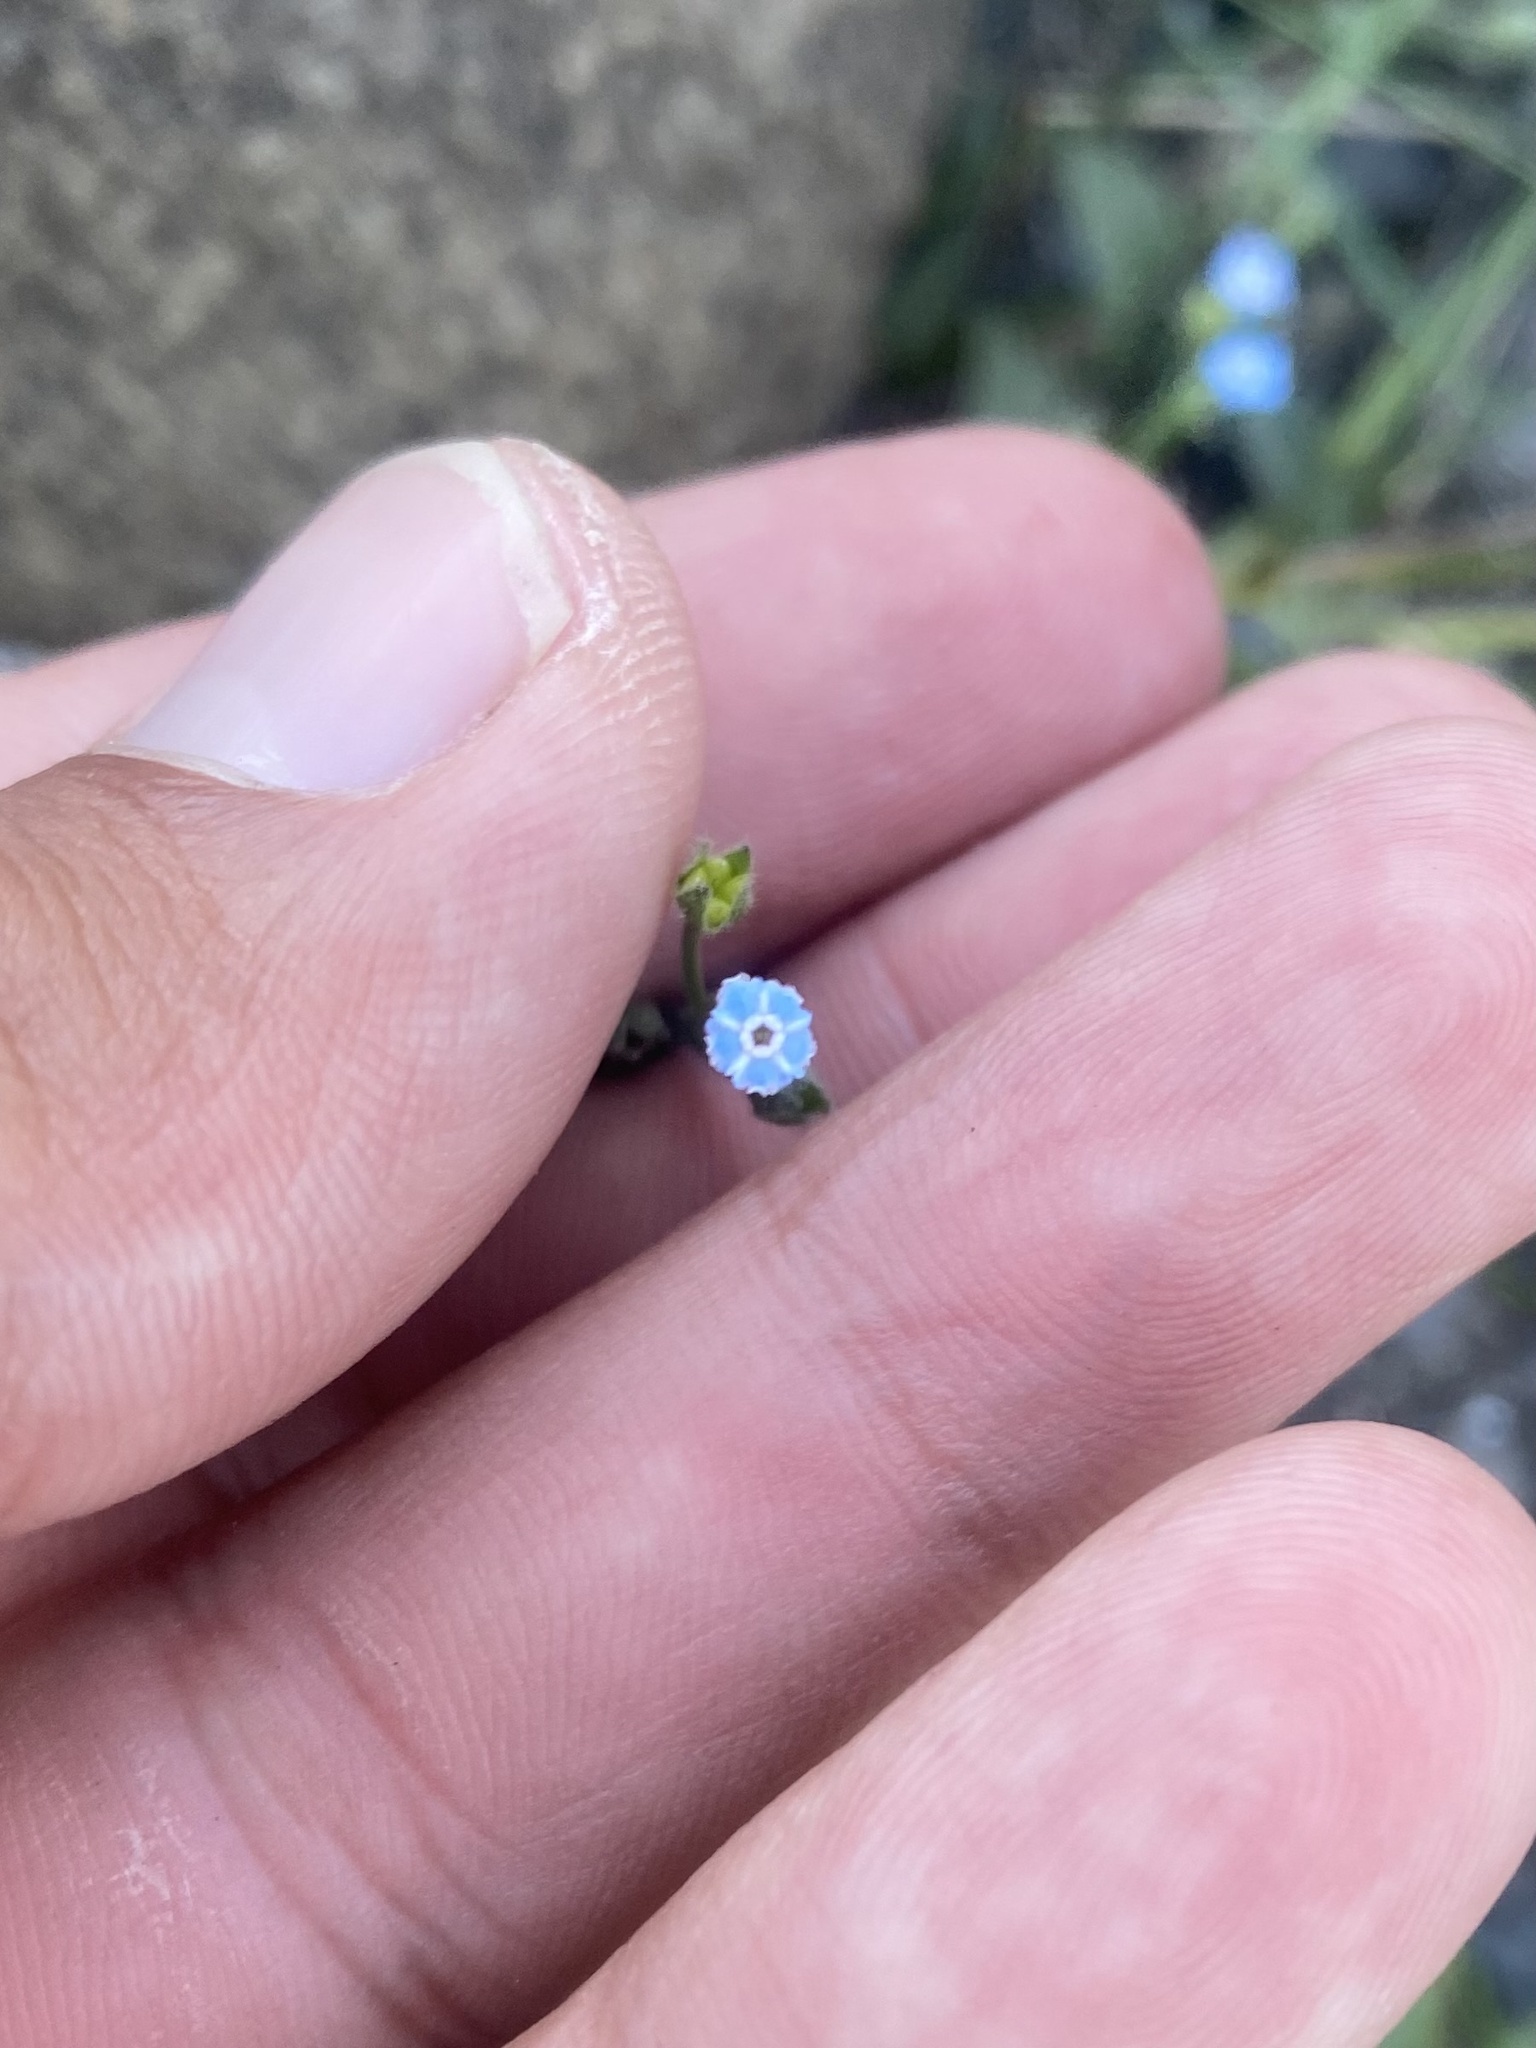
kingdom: Plantae
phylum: Tracheophyta
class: Magnoliopsida
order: Boraginales
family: Boraginaceae
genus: Myosotis
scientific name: Myosotis asiatica
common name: Asian forget-me-not
